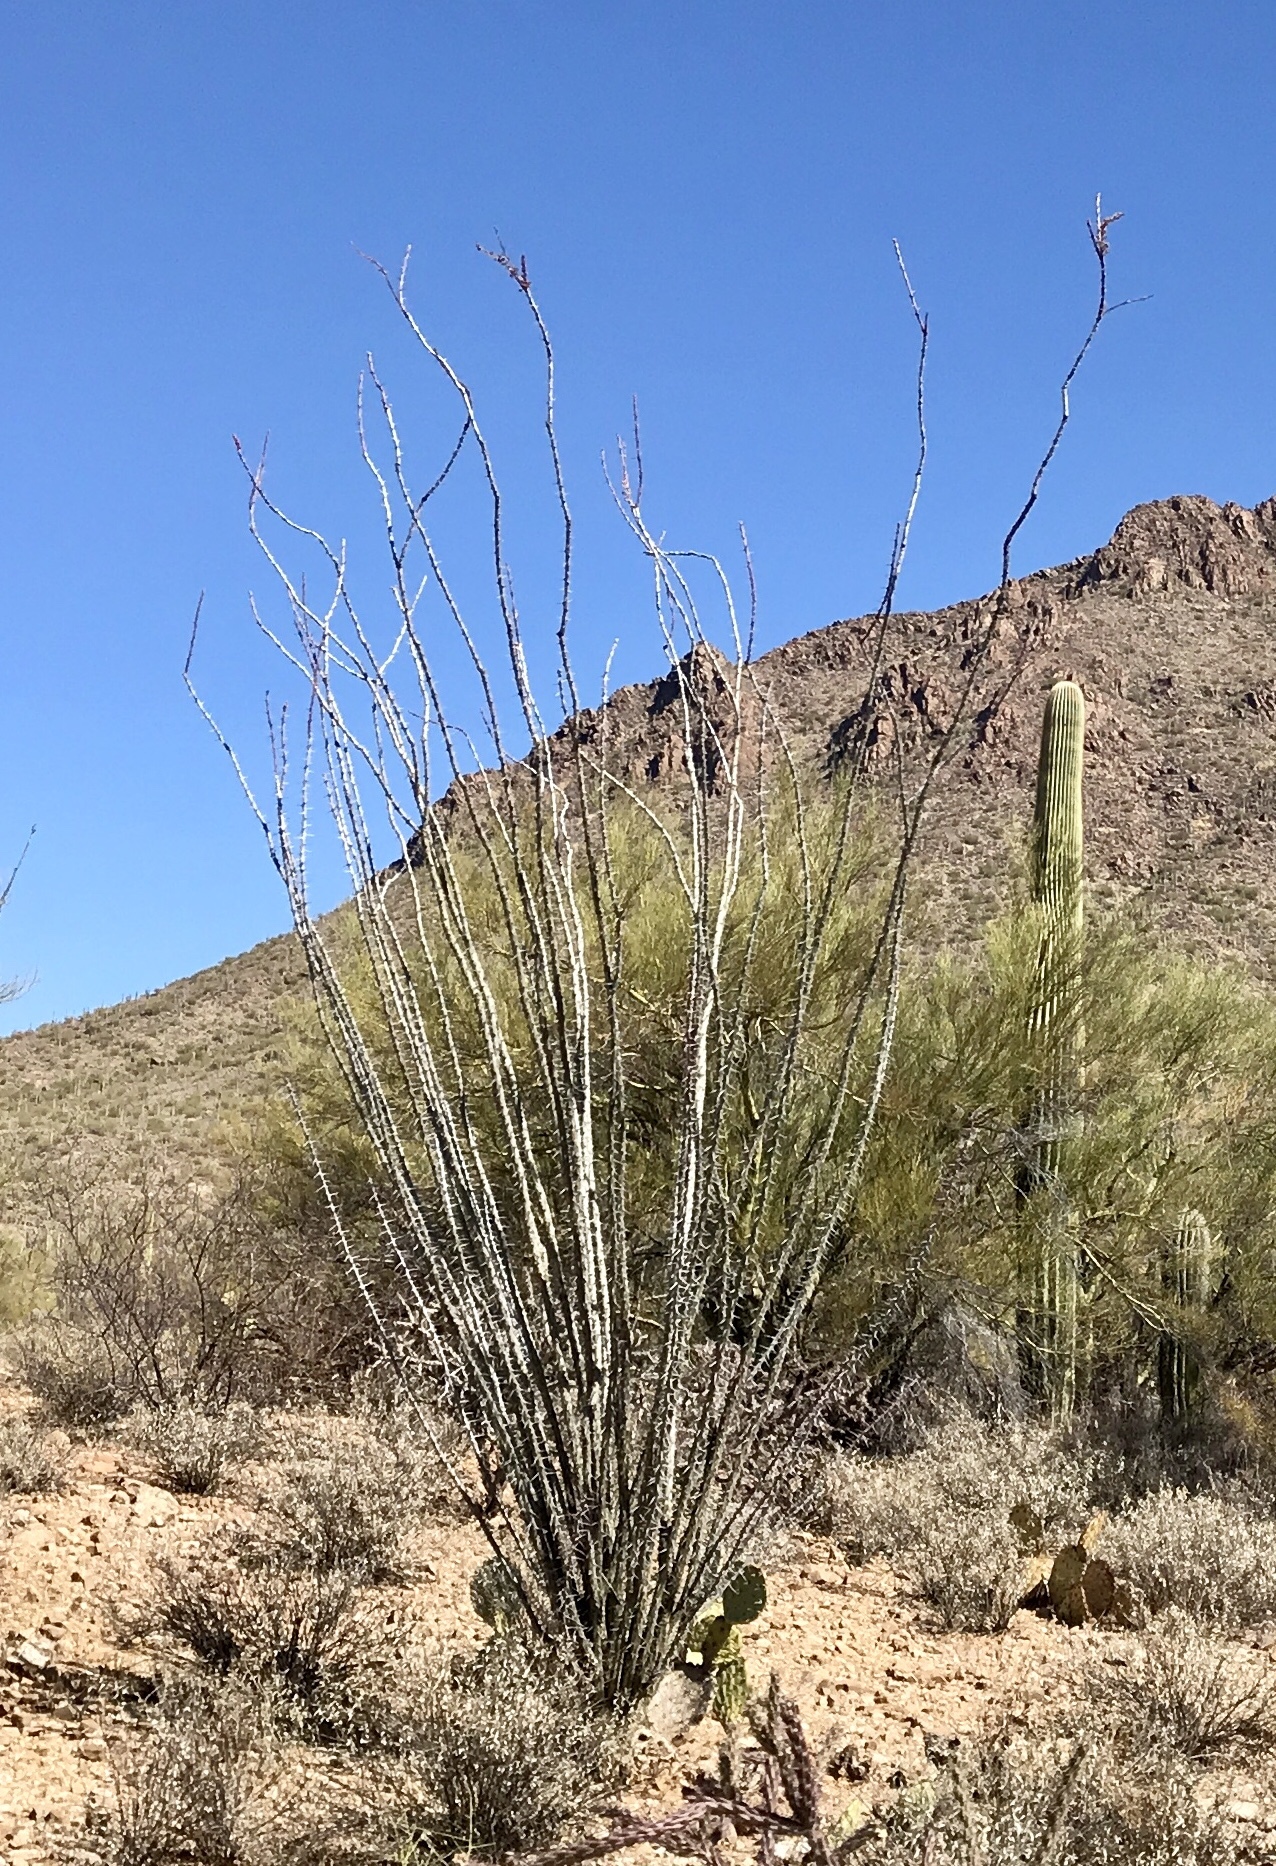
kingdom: Plantae
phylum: Tracheophyta
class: Magnoliopsida
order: Ericales
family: Fouquieriaceae
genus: Fouquieria
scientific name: Fouquieria splendens
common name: Vine-cactus
